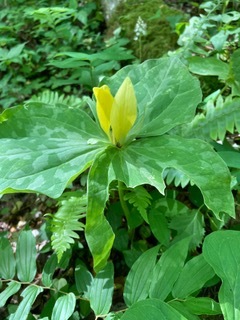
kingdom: Plantae
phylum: Tracheophyta
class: Liliopsida
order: Liliales
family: Melanthiaceae
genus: Trillium
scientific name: Trillium luteum
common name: Wax trillium
